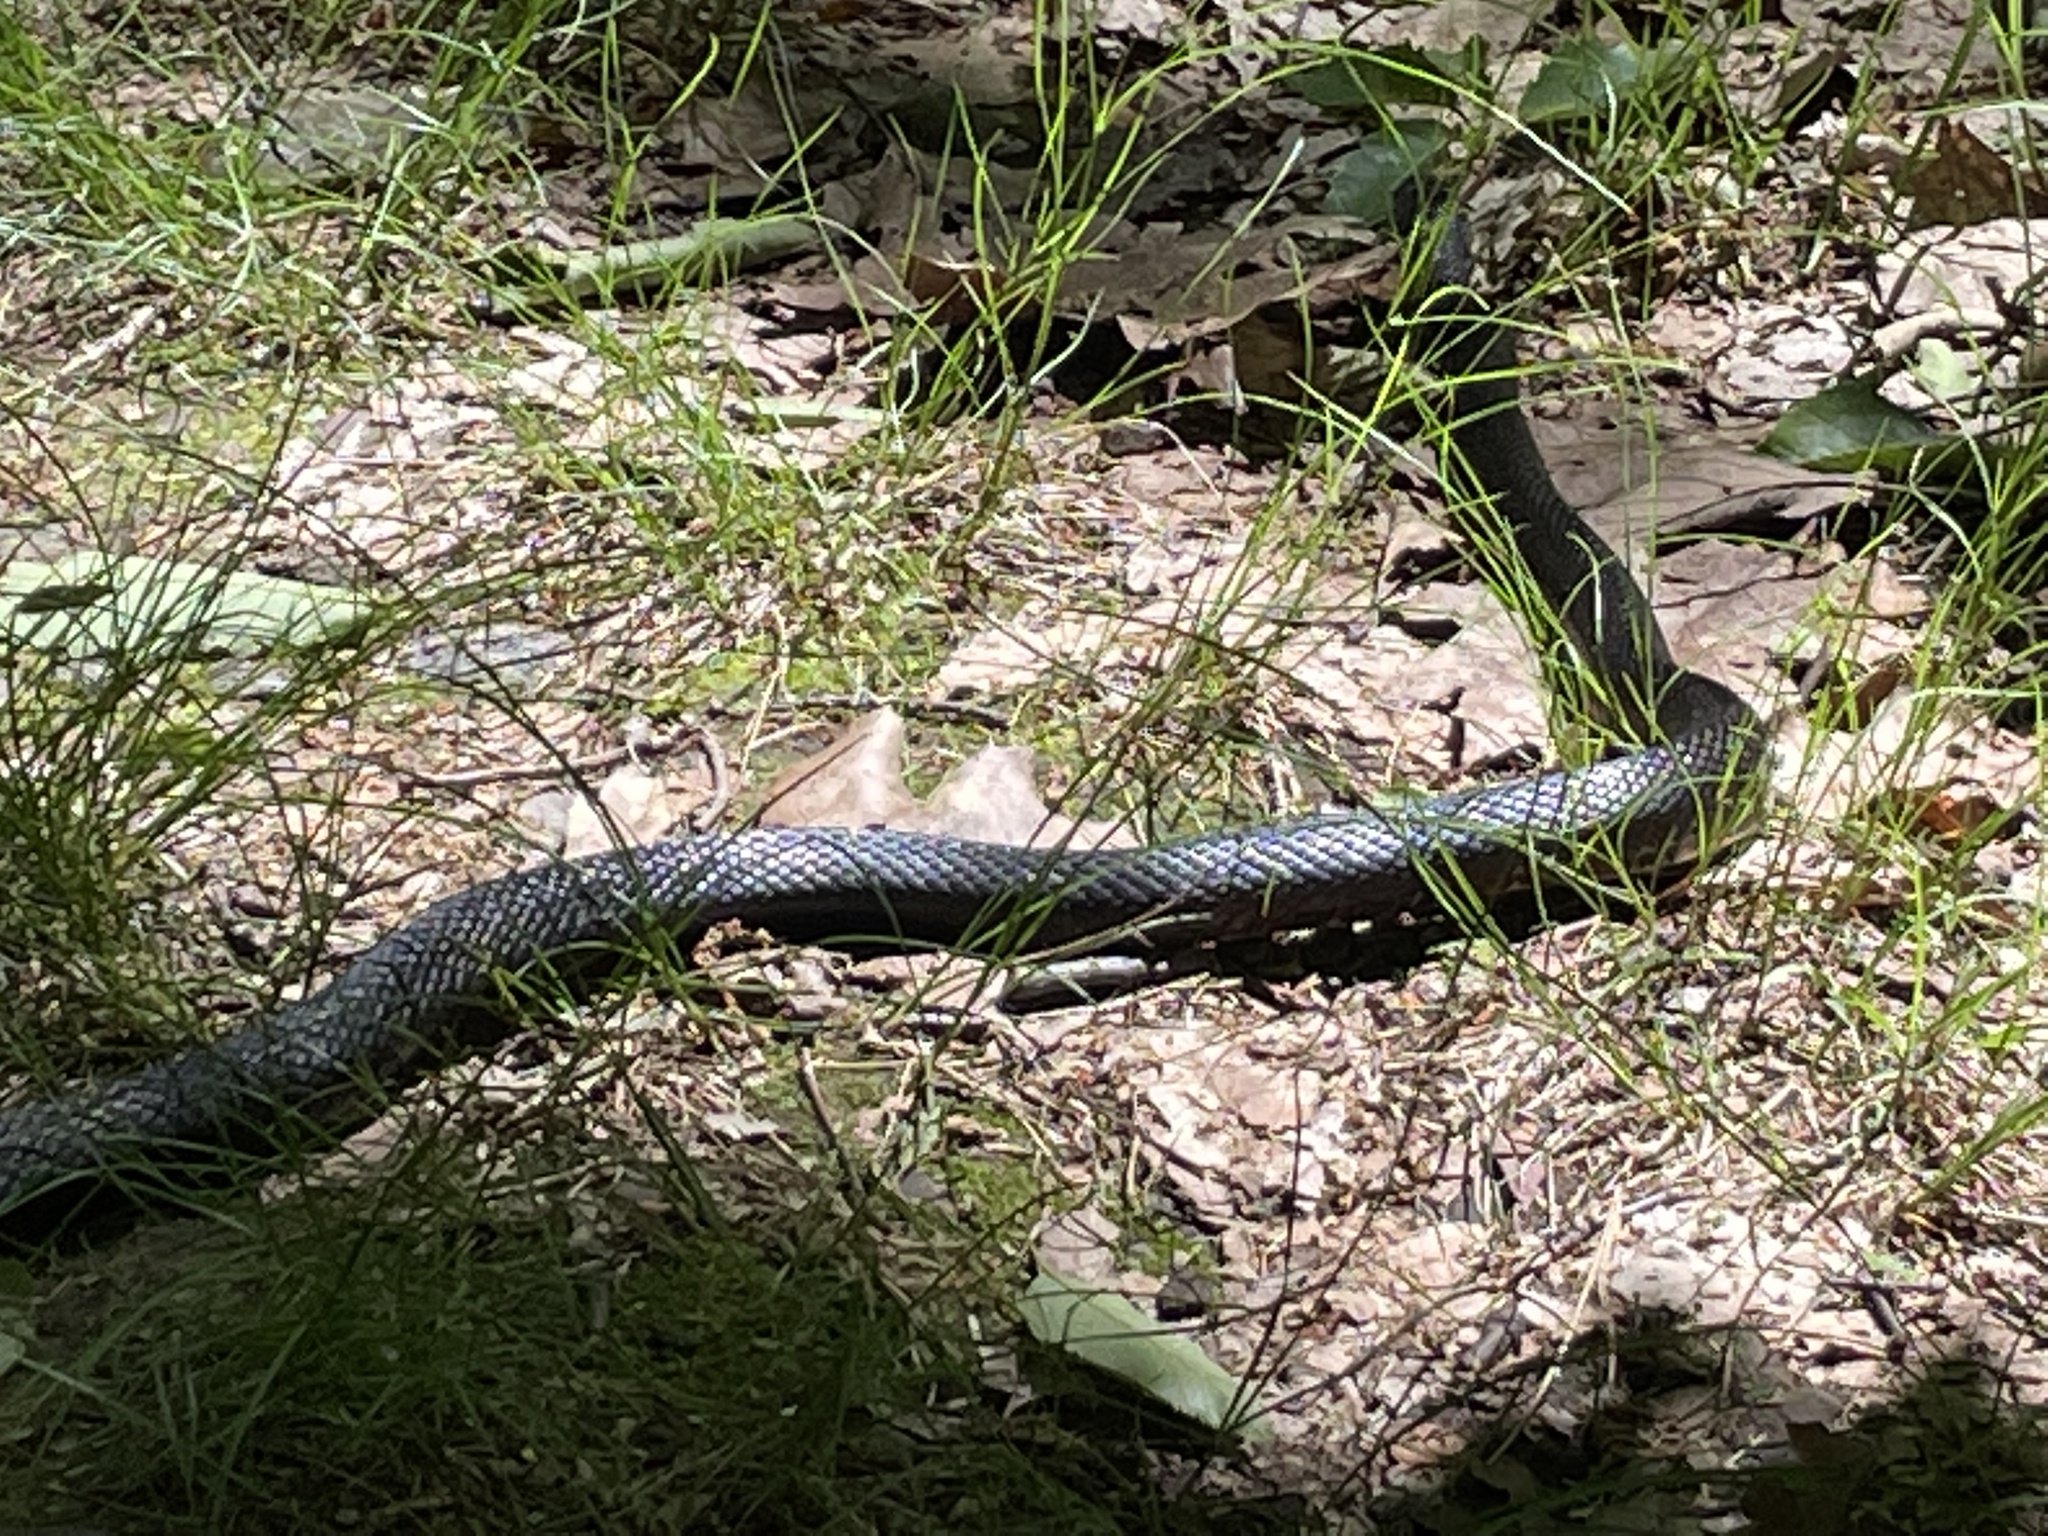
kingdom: Animalia
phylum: Chordata
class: Squamata
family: Colubridae
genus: Pantherophis
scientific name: Pantherophis alleghaniensis
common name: Eastern rat snake
